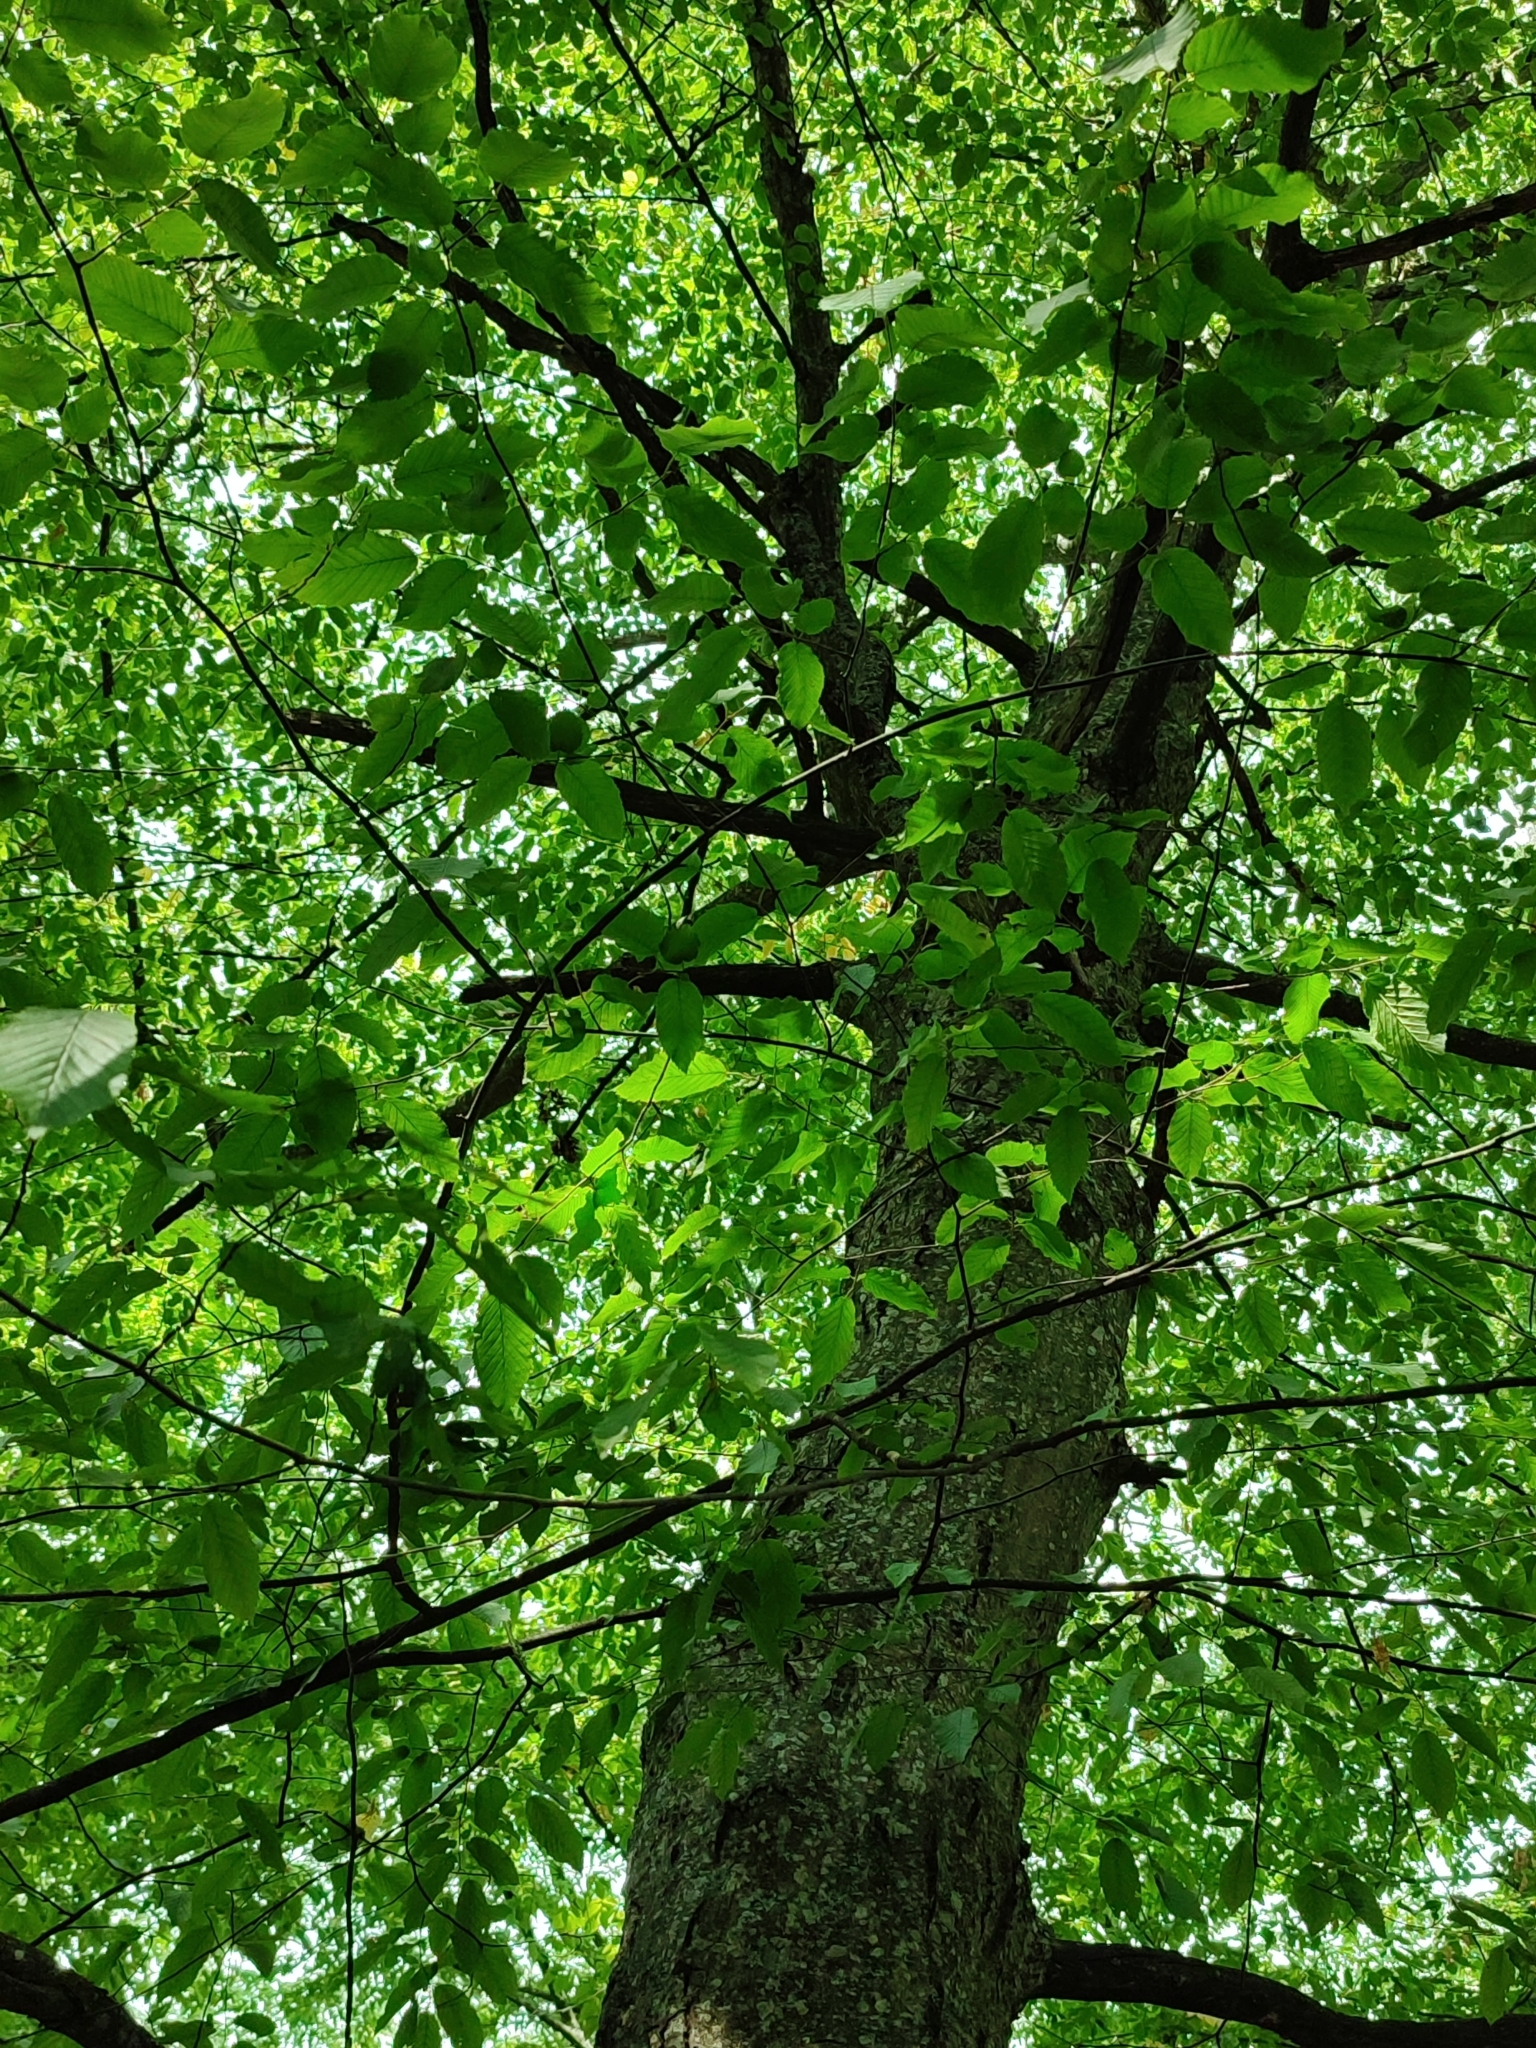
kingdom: Plantae
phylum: Tracheophyta
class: Magnoliopsida
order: Fagales
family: Betulaceae
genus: Carpinus
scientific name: Carpinus betulus
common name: Hornbeam
